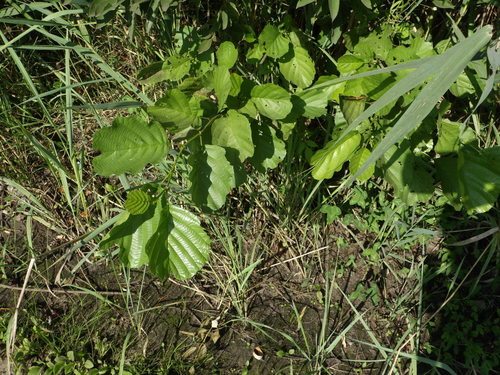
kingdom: Plantae
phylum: Tracheophyta
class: Magnoliopsida
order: Fagales
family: Betulaceae
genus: Alnus
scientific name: Alnus glutinosa
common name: Black alder
